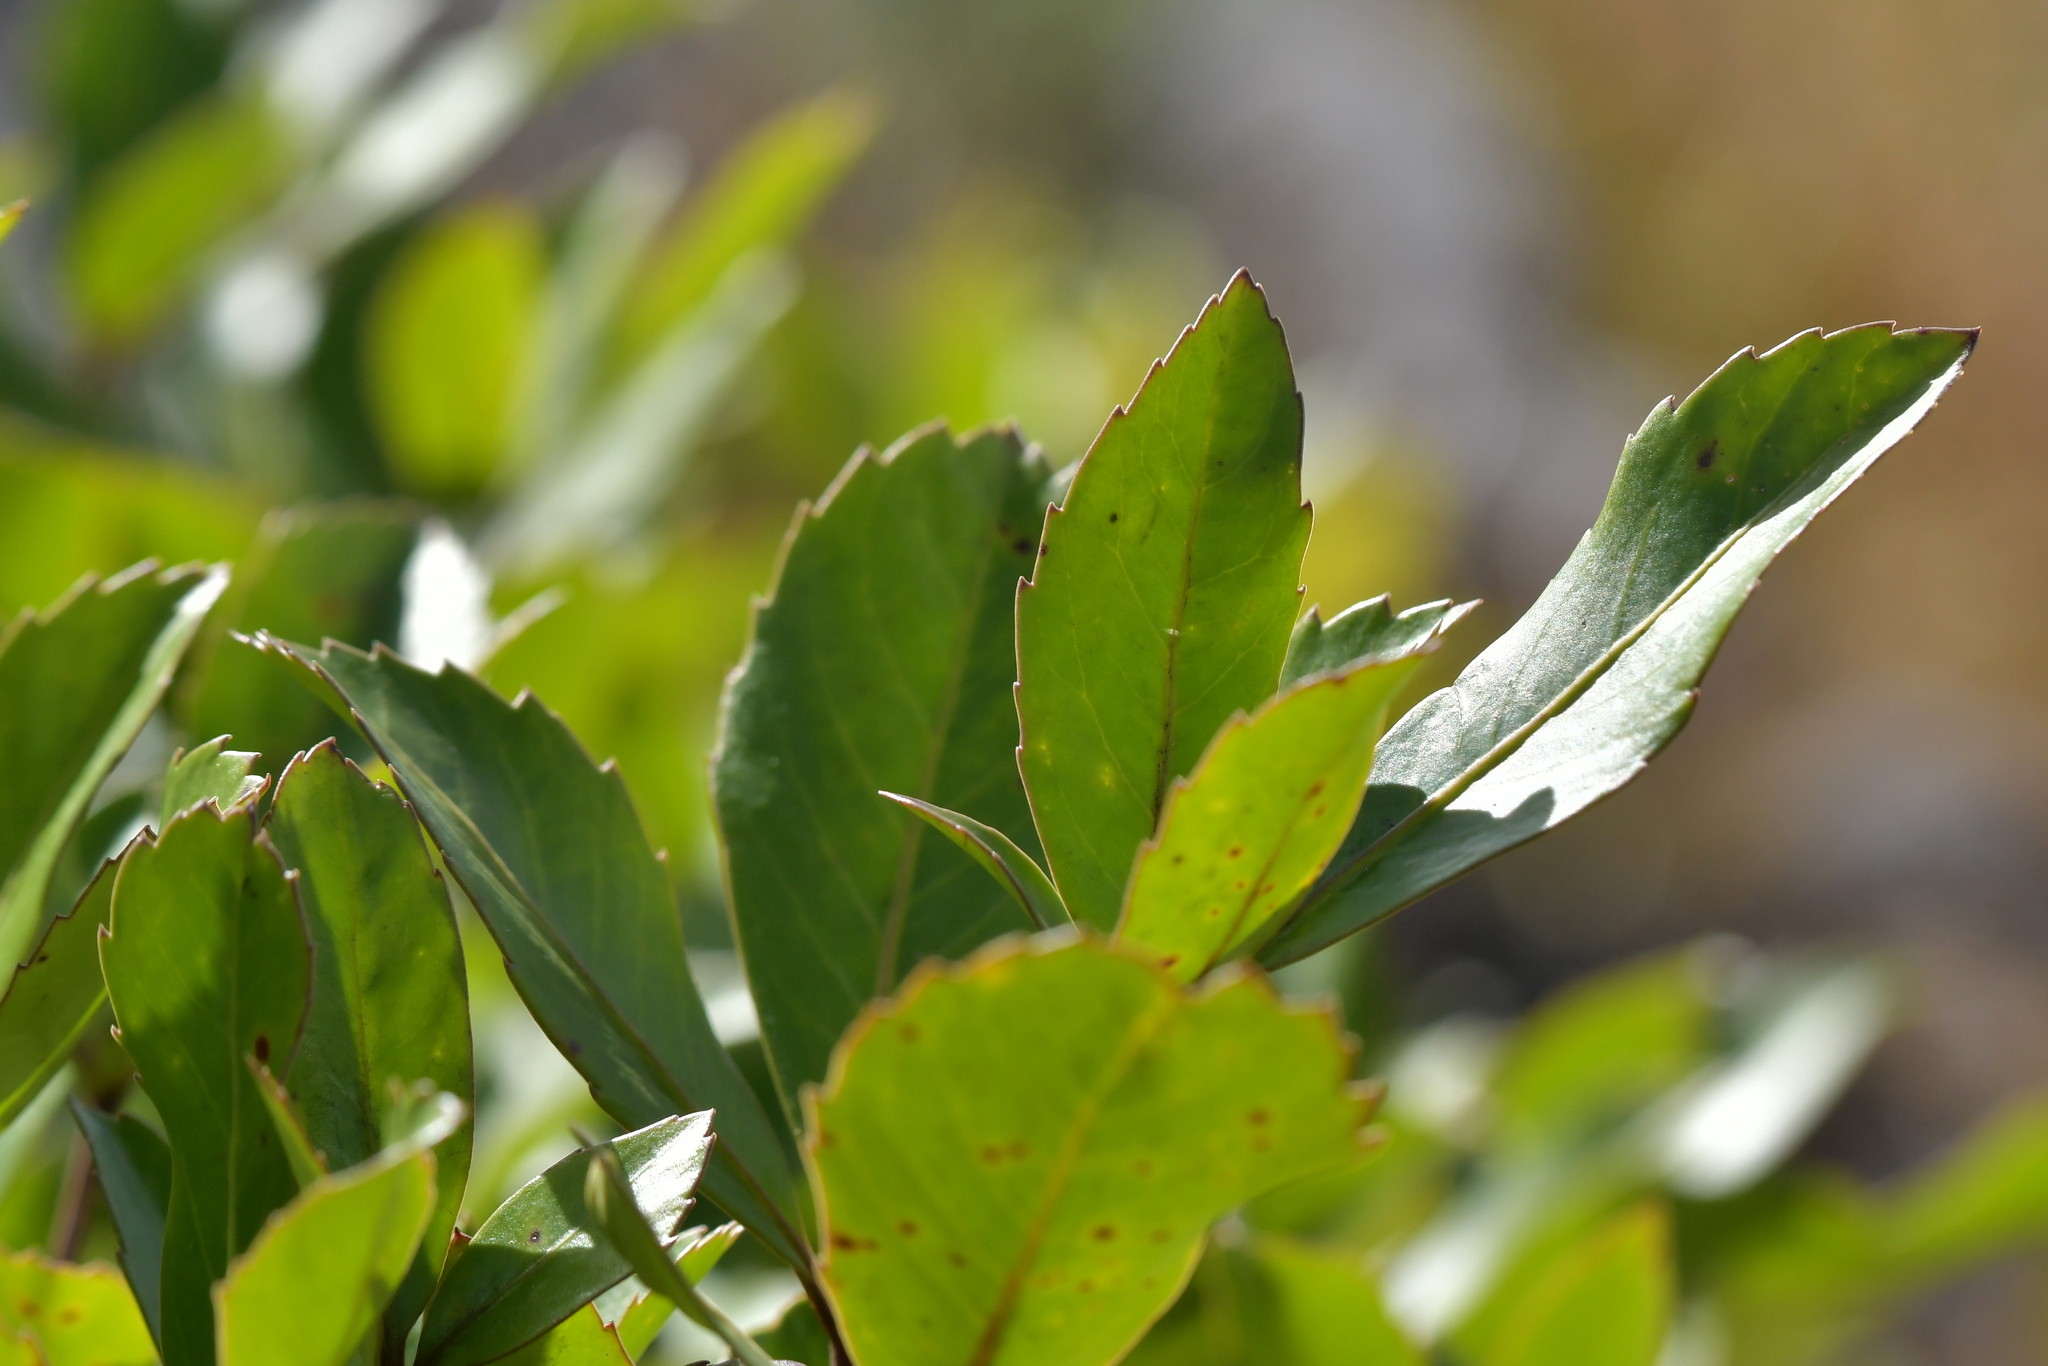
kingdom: Plantae
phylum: Tracheophyta
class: Magnoliopsida
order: Apiales
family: Araliaceae
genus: Raukaua
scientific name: Raukaua simplex
